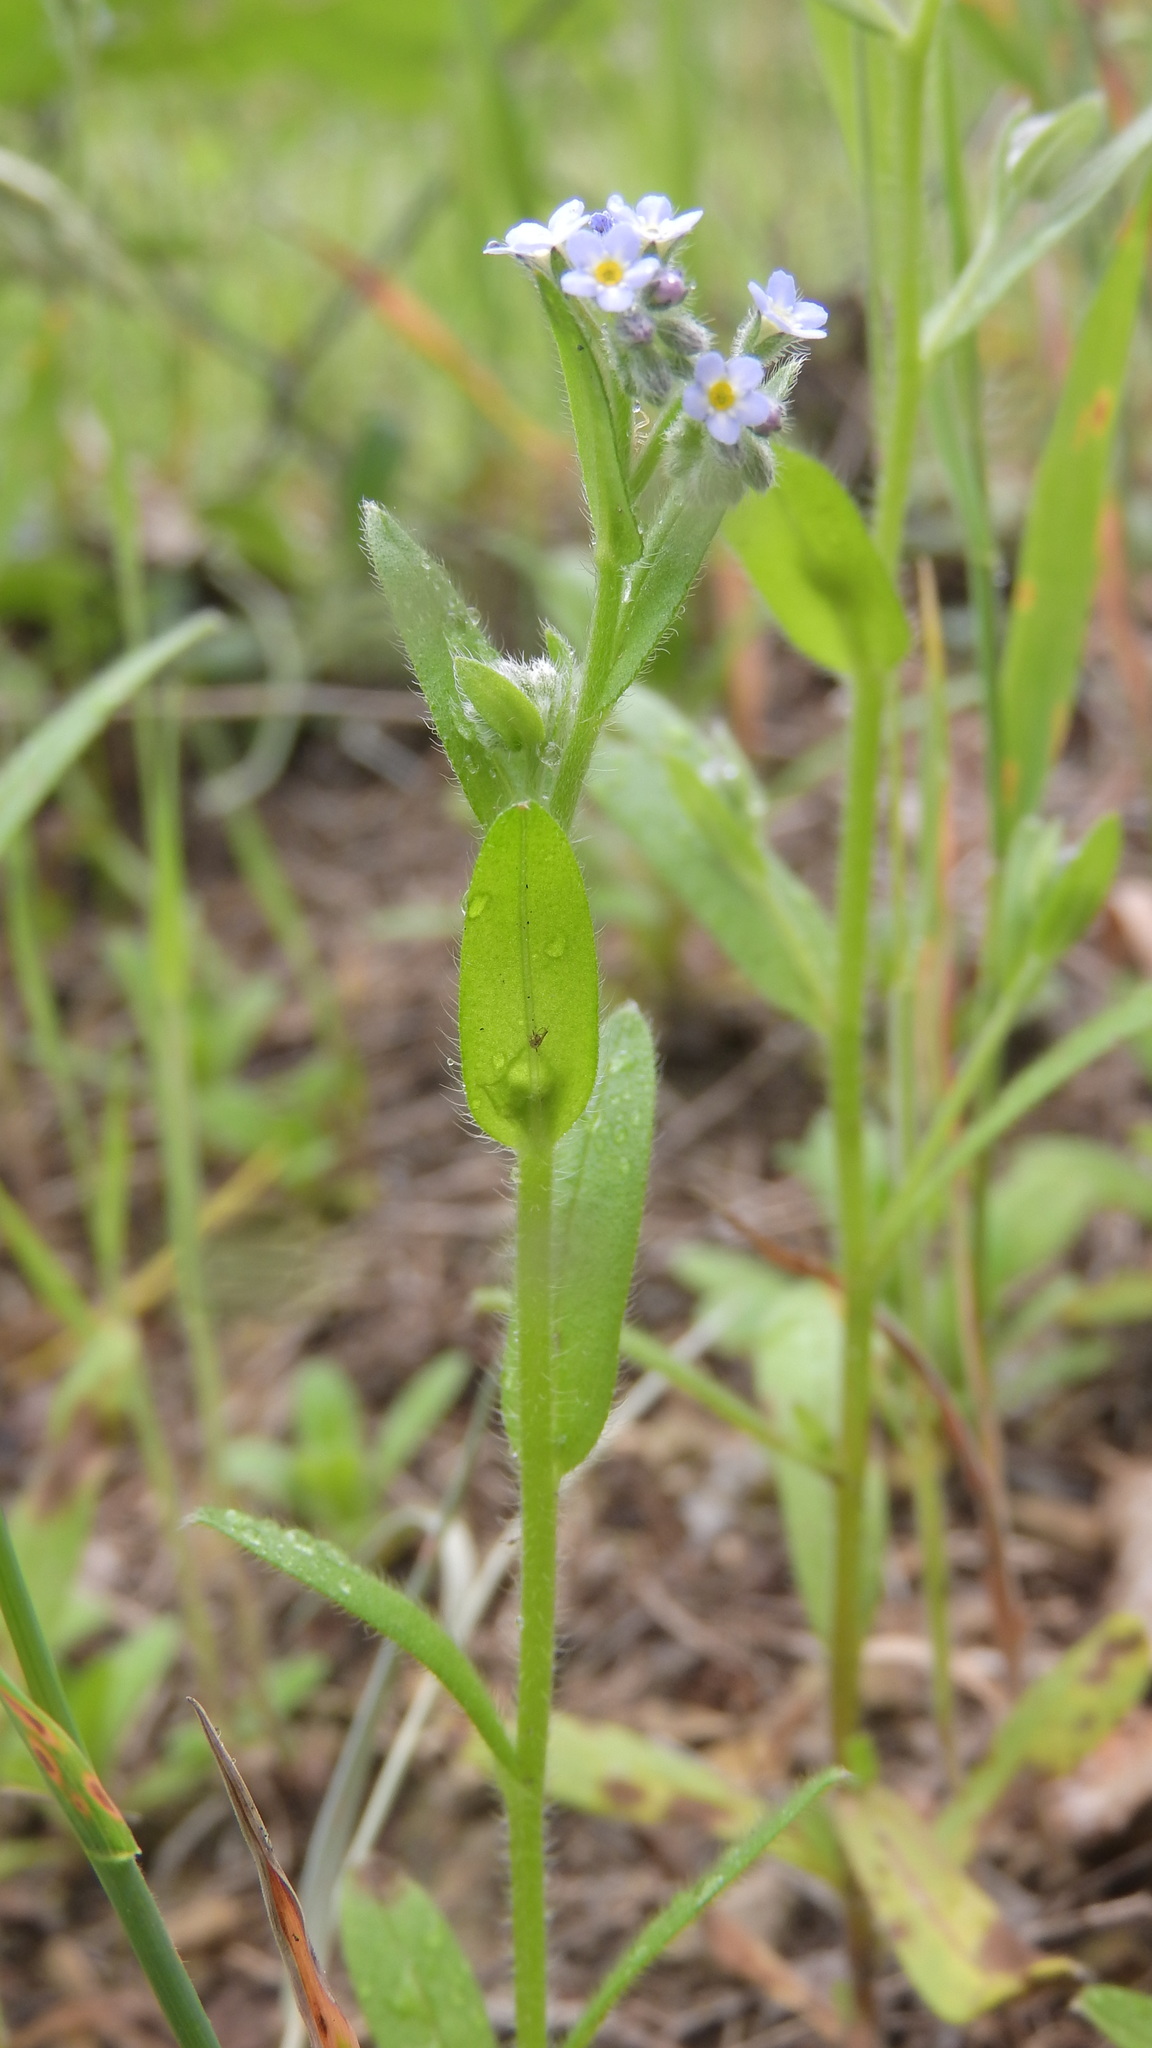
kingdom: Plantae
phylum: Tracheophyta
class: Magnoliopsida
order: Boraginales
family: Boraginaceae
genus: Myosotis
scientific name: Myosotis arvensis
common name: Field forget-me-not
